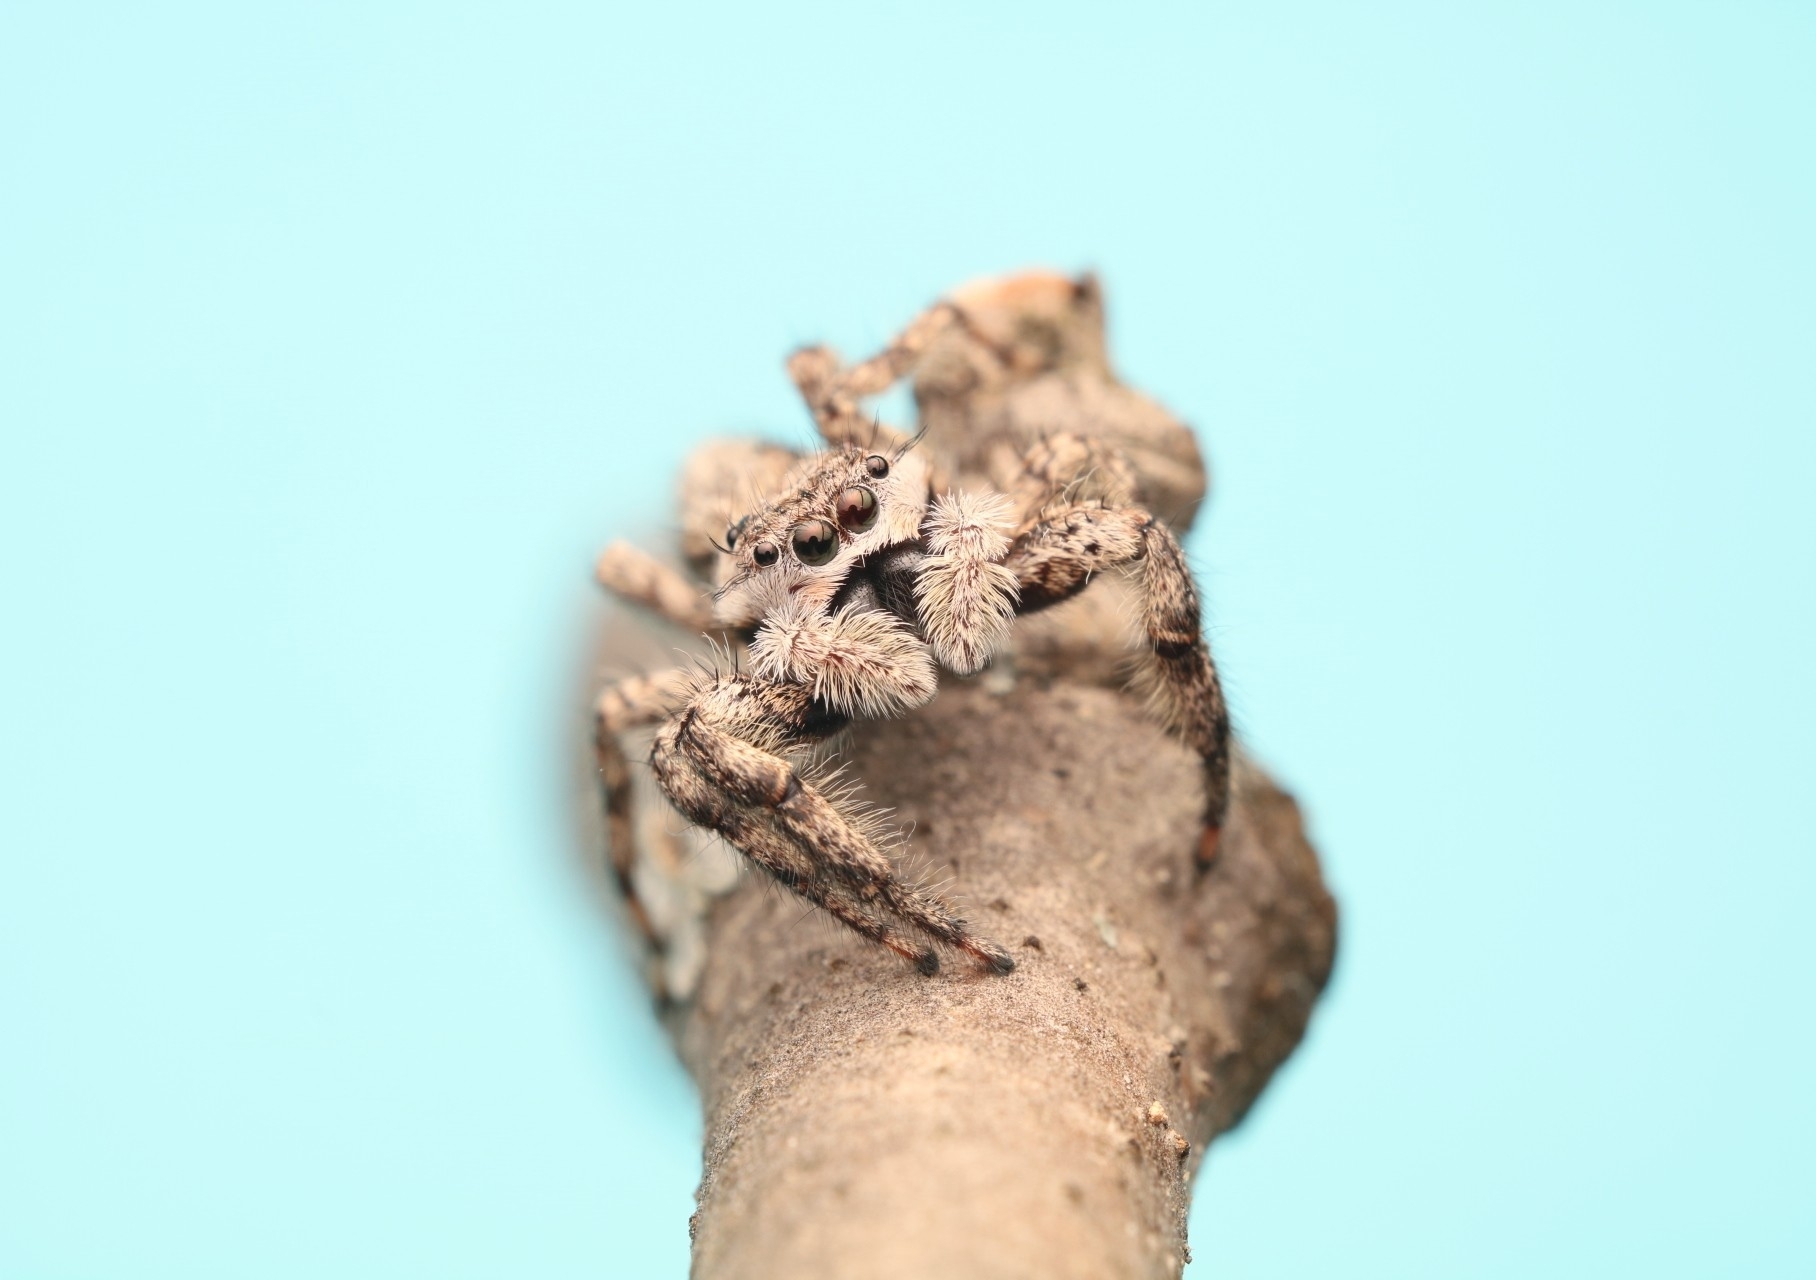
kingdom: Animalia
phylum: Arthropoda
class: Arachnida
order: Araneae
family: Salticidae
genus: Platycryptus
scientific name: Platycryptus undatus
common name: Tan jumping spider
